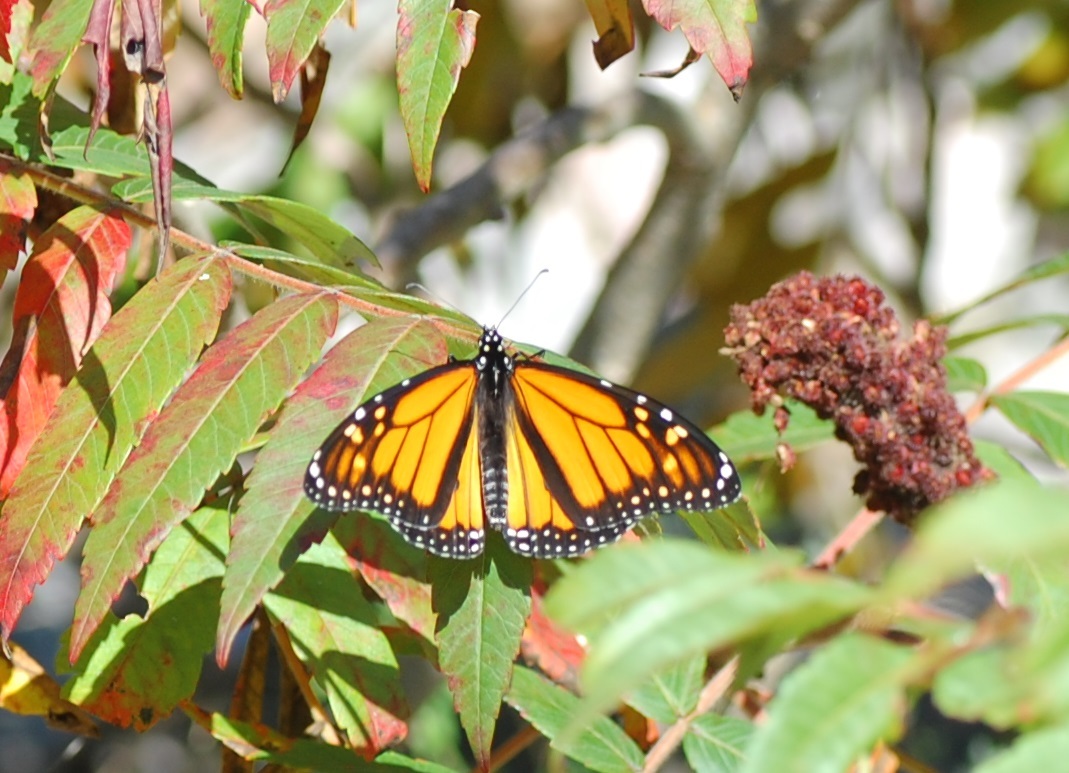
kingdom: Animalia
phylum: Arthropoda
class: Insecta
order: Lepidoptera
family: Nymphalidae
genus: Danaus
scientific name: Danaus plexippus
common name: Monarch
